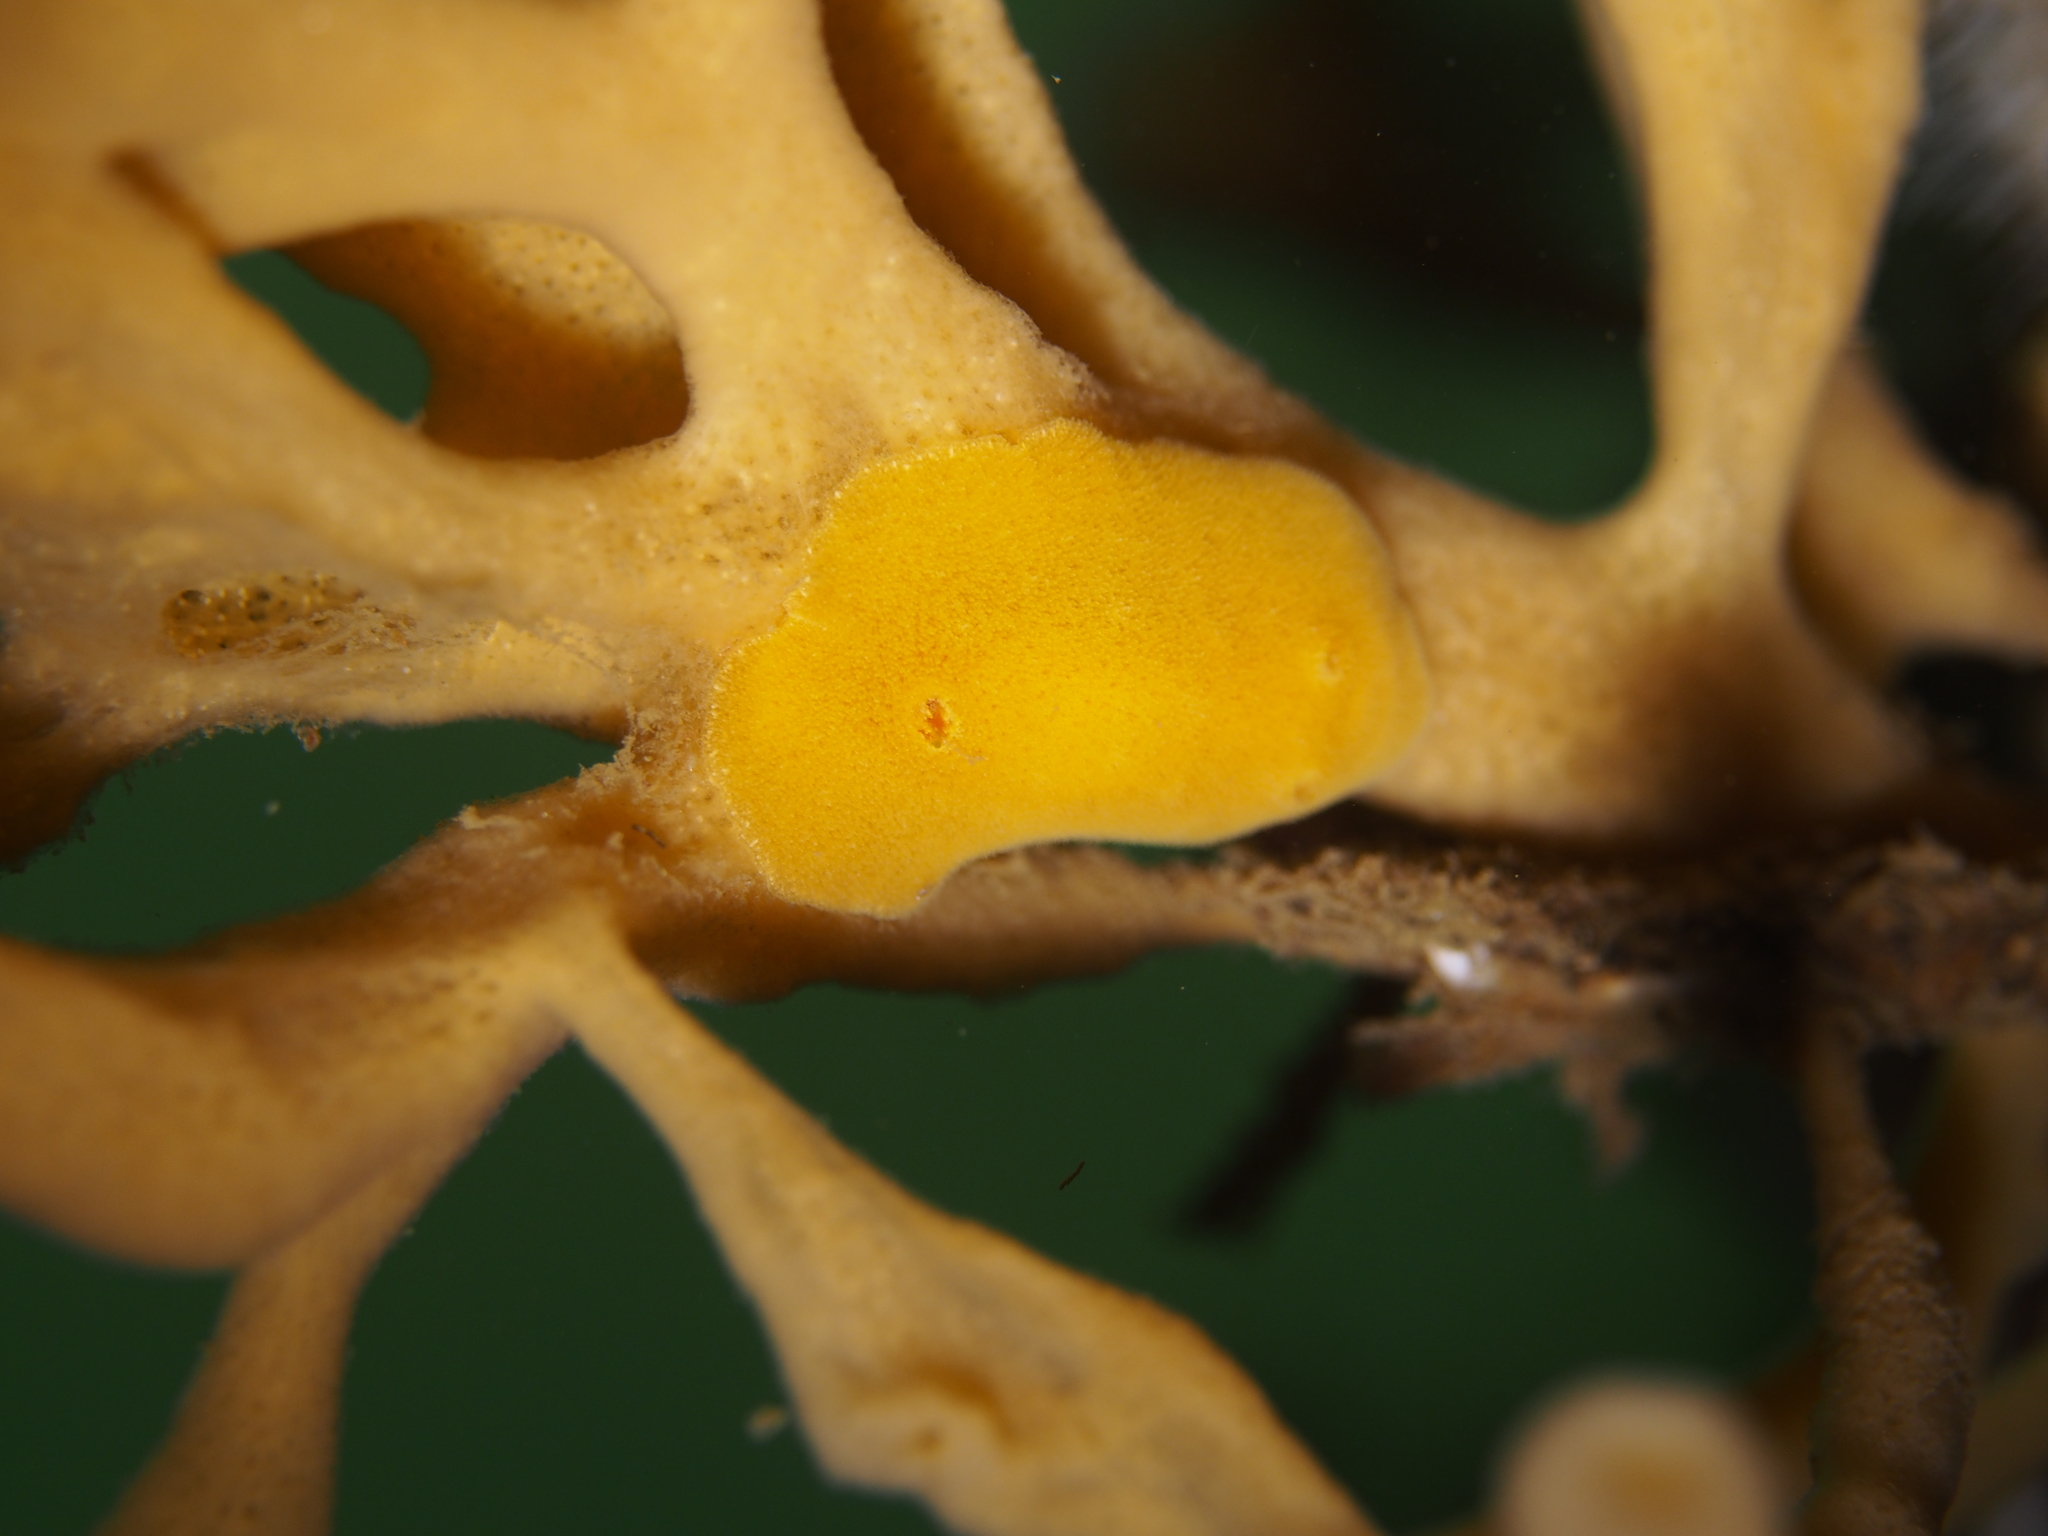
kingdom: Animalia
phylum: Mollusca
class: Gastropoda
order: Nudibranchia
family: Discodorididae
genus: Jorunna
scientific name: Jorunna tomentosa
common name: Grey sea slug
